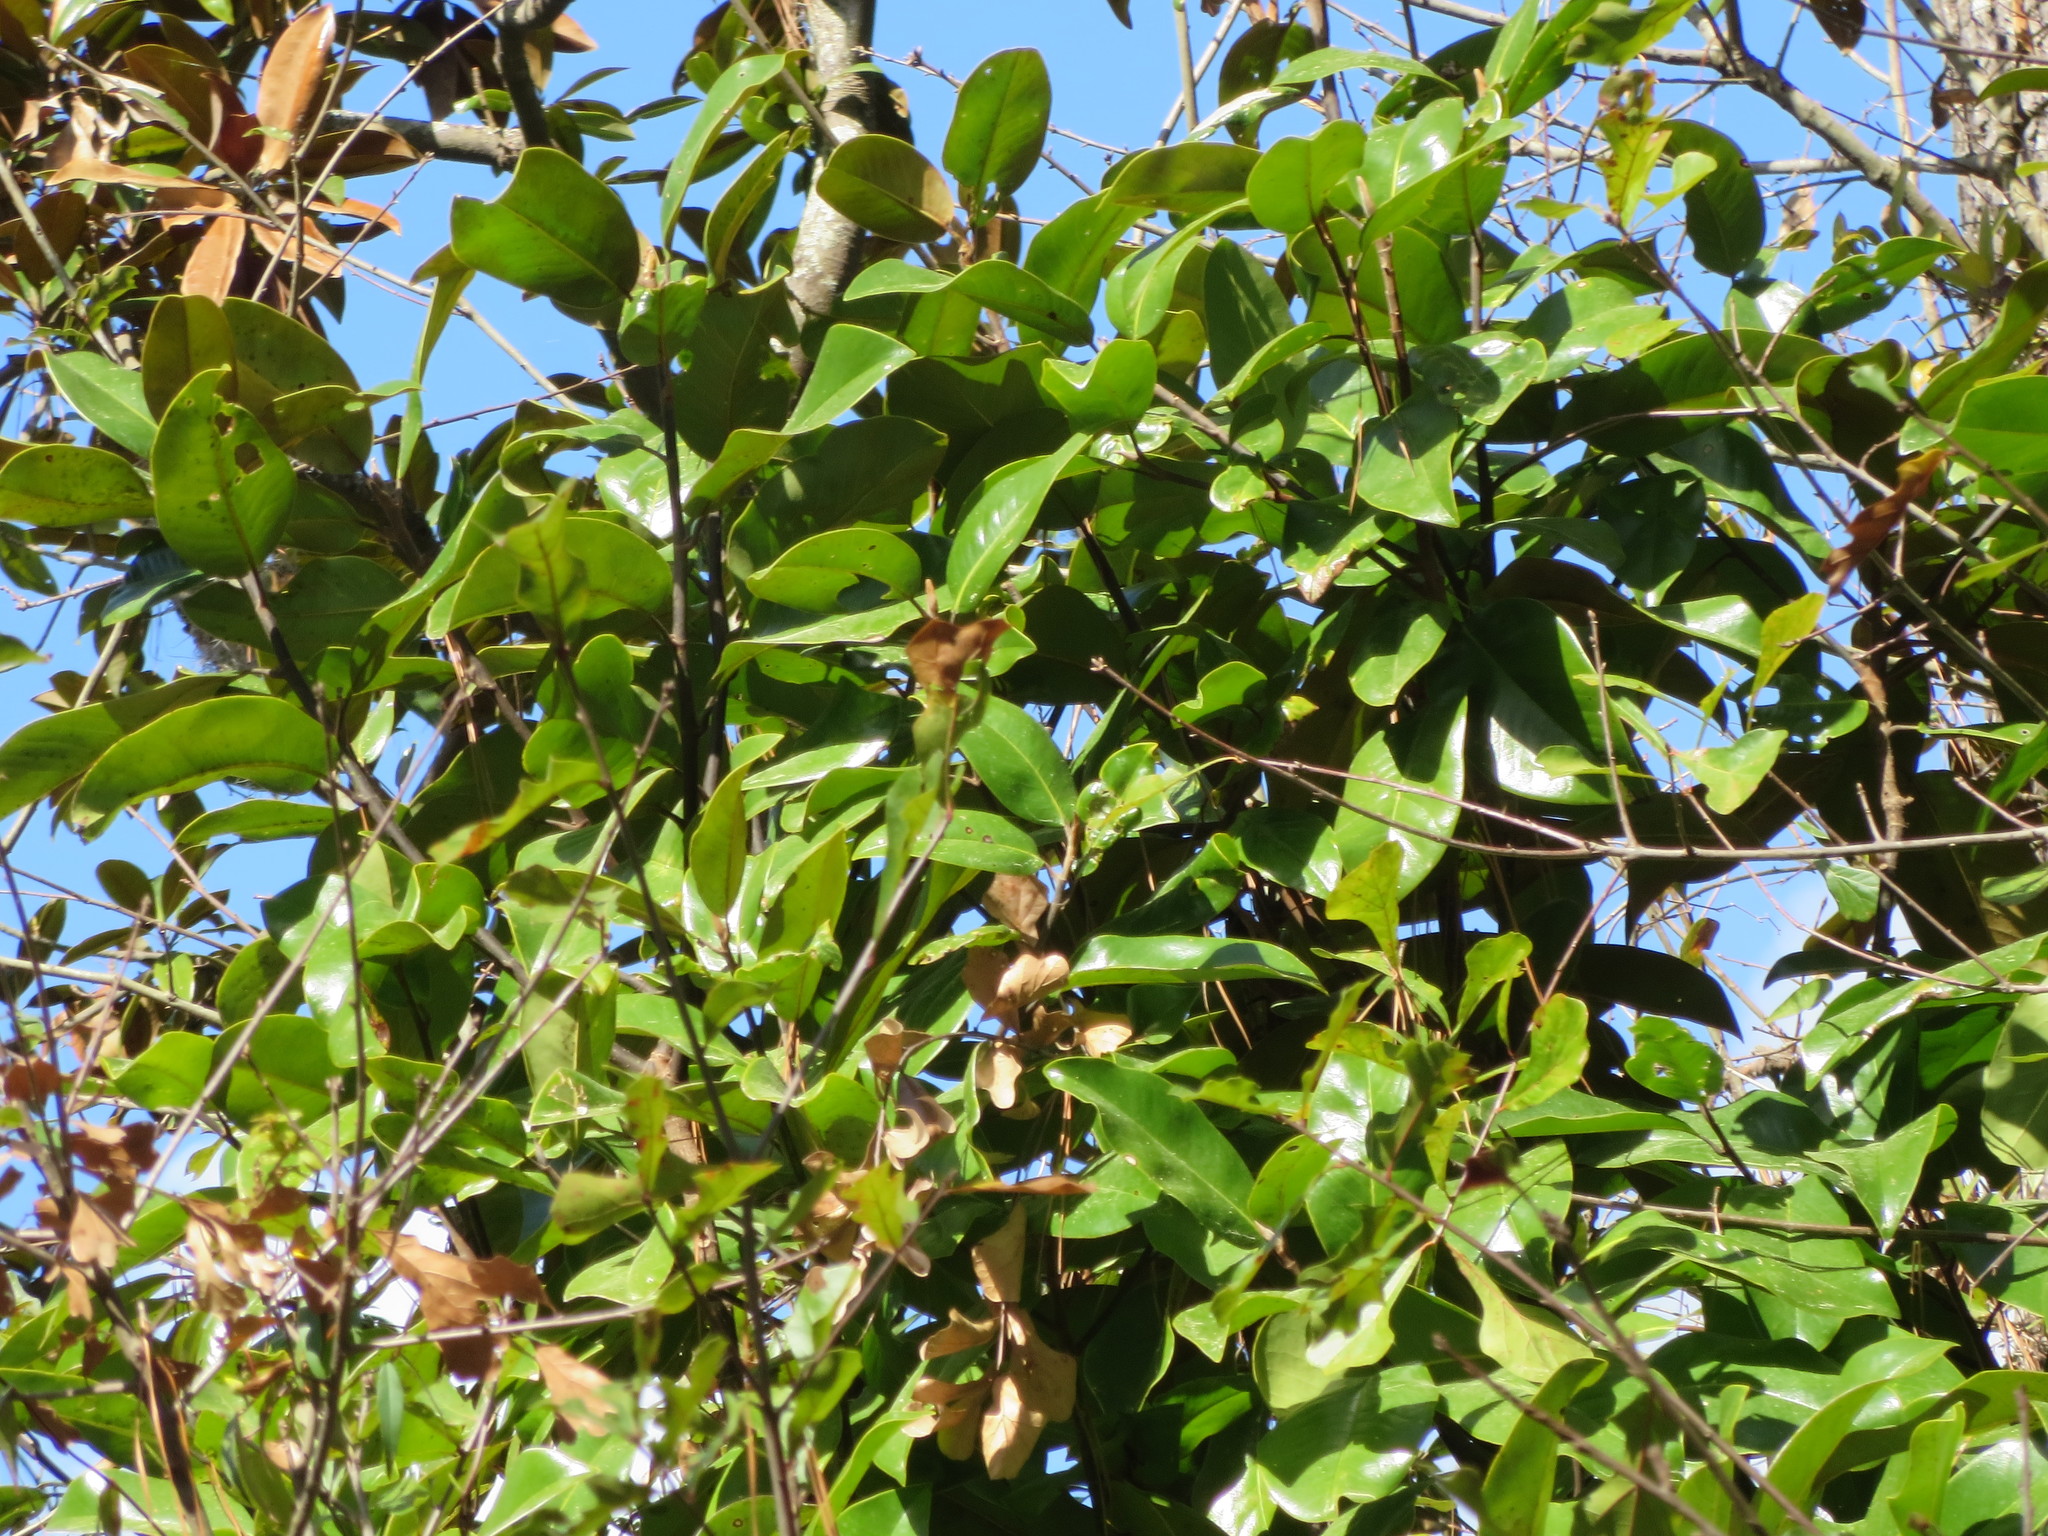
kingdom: Plantae
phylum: Tracheophyta
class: Magnoliopsida
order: Magnoliales
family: Magnoliaceae
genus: Magnolia
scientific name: Magnolia grandiflora
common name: Southern magnolia
